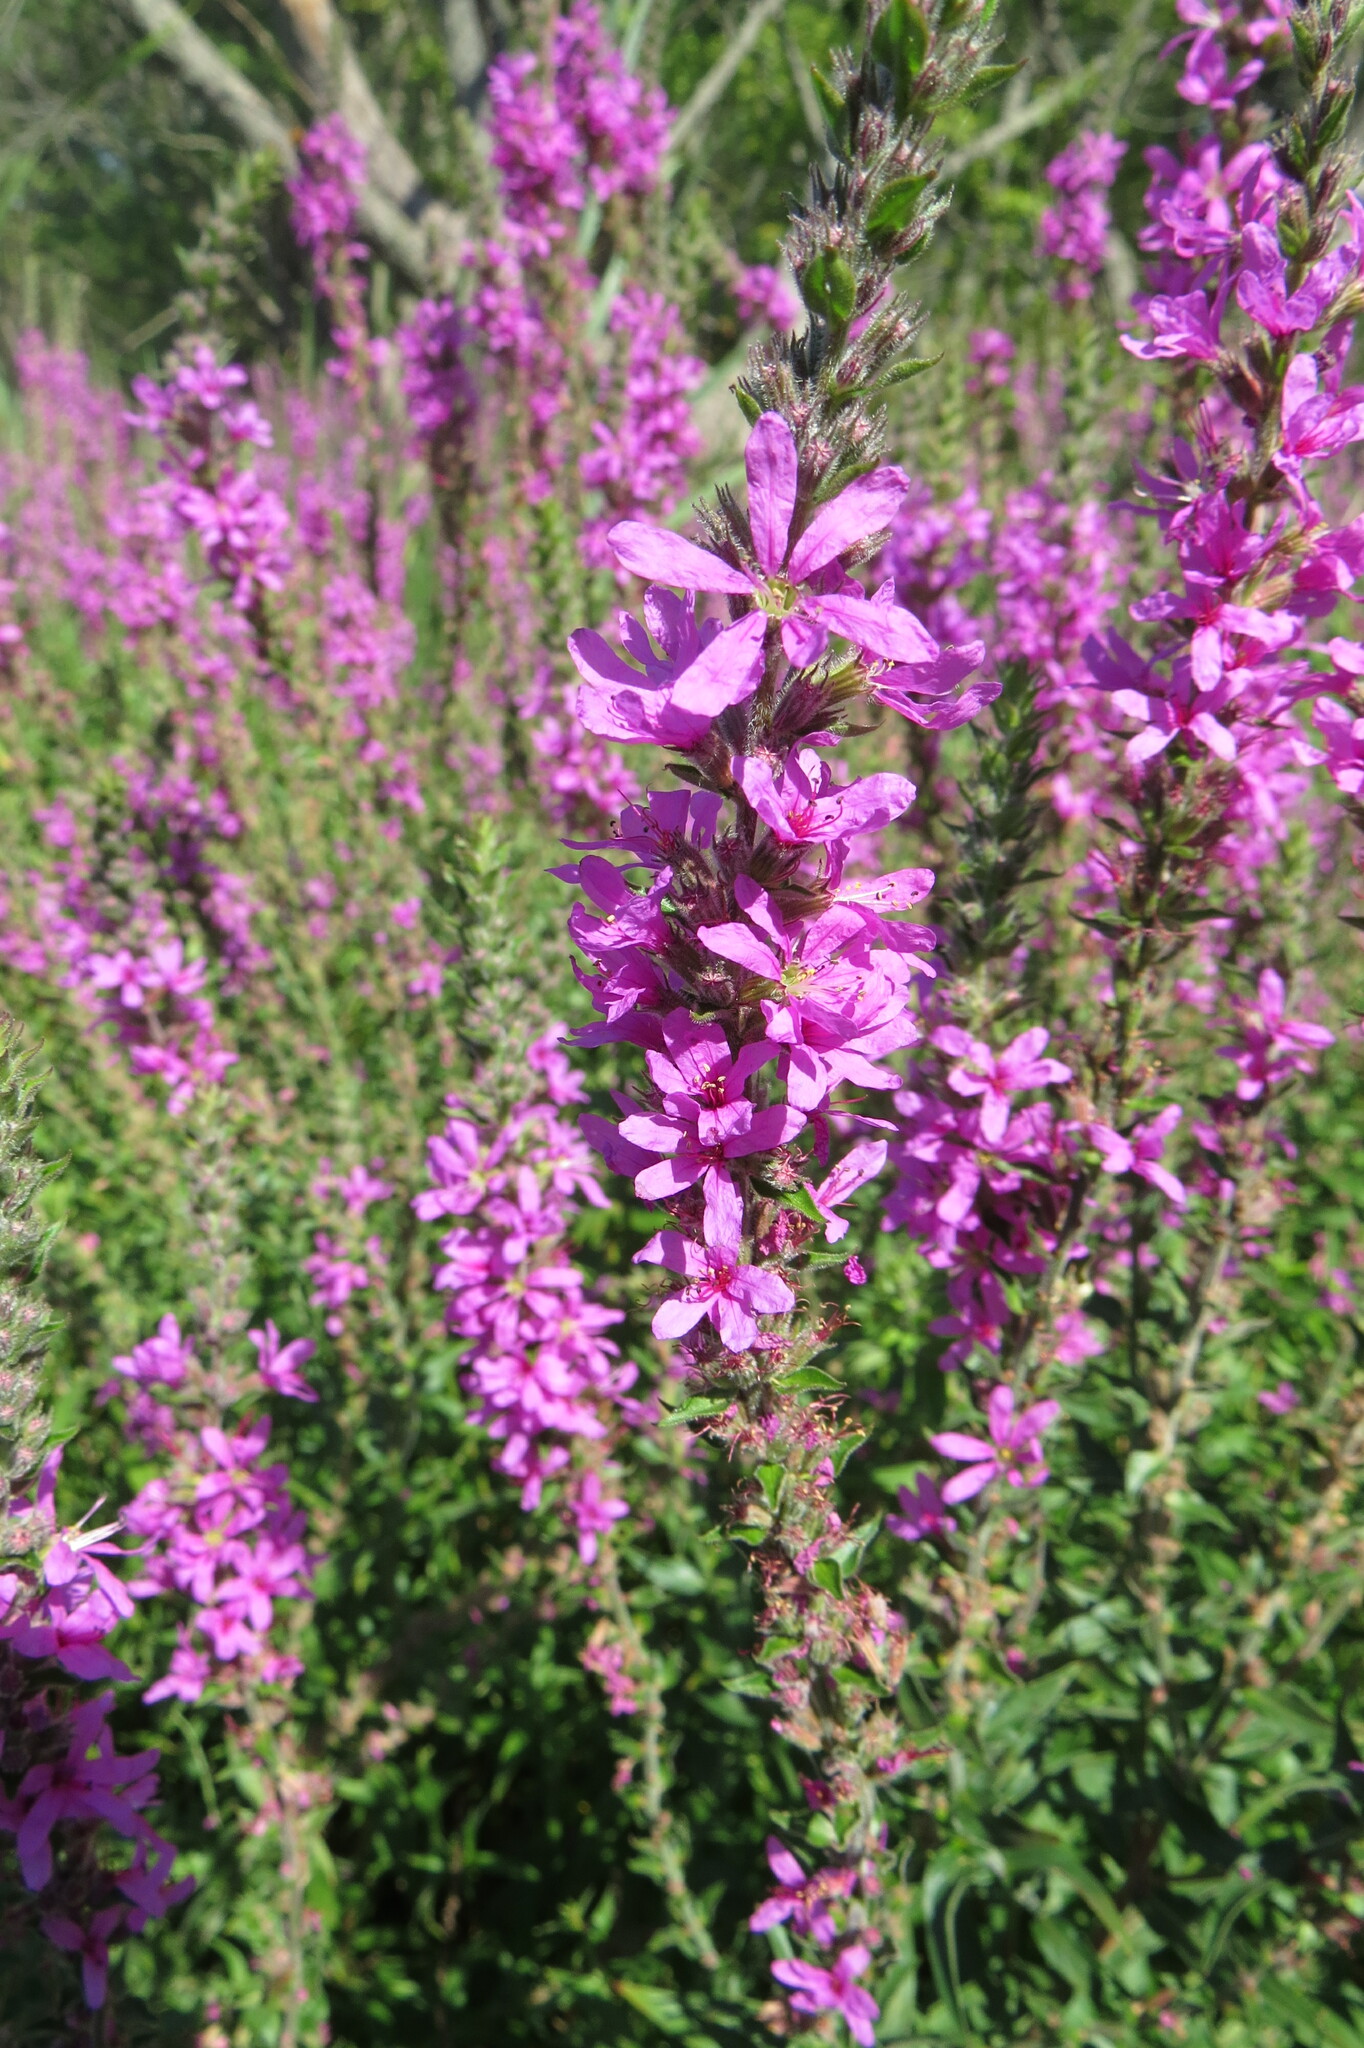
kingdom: Plantae
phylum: Tracheophyta
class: Magnoliopsida
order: Myrtales
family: Lythraceae
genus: Lythrum
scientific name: Lythrum salicaria
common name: Purple loosestrife
